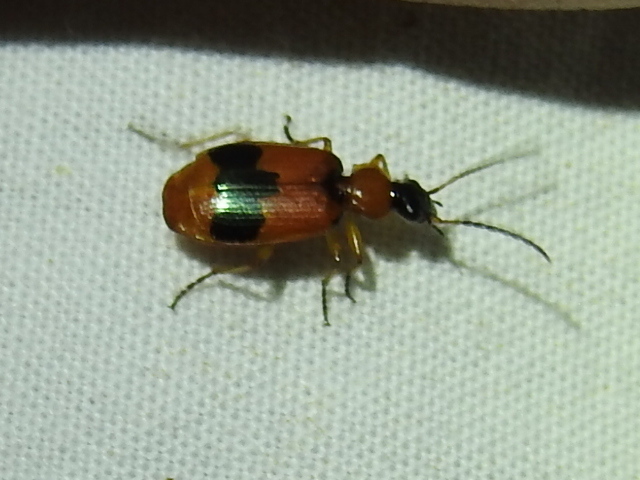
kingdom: Animalia
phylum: Arthropoda
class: Insecta
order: Coleoptera
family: Carabidae
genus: Lebia
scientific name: Lebia pulchella
